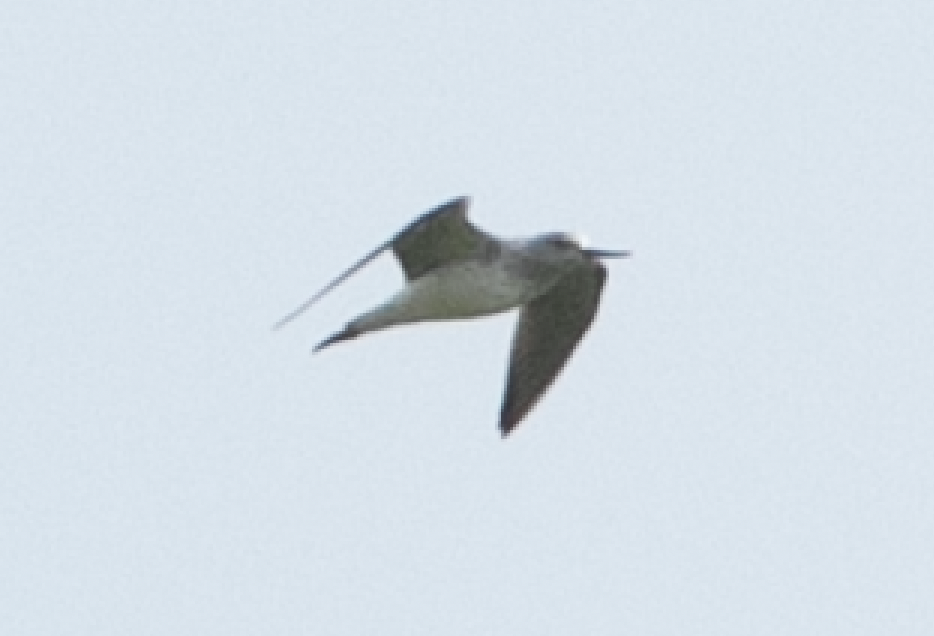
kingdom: Animalia
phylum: Chordata
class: Aves
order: Charadriiformes
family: Scolopacidae
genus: Tringa
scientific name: Tringa nebularia
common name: Common greenshank
